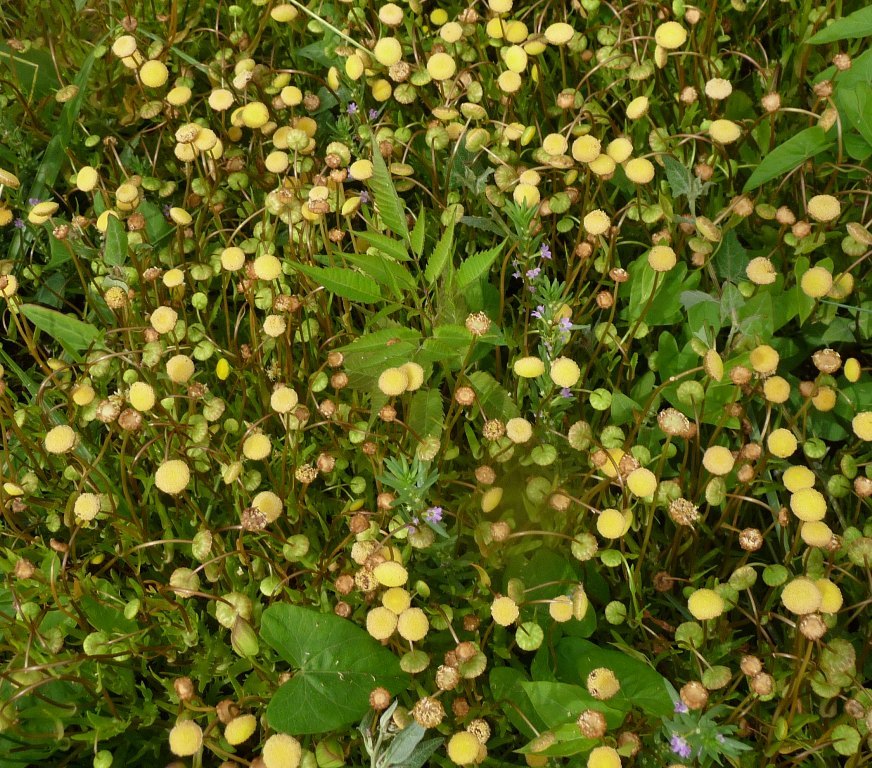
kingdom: Plantae
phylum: Tracheophyta
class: Magnoliopsida
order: Asterales
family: Asteraceae
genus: Cotula
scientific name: Cotula coronopifolia
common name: Buttonweed
